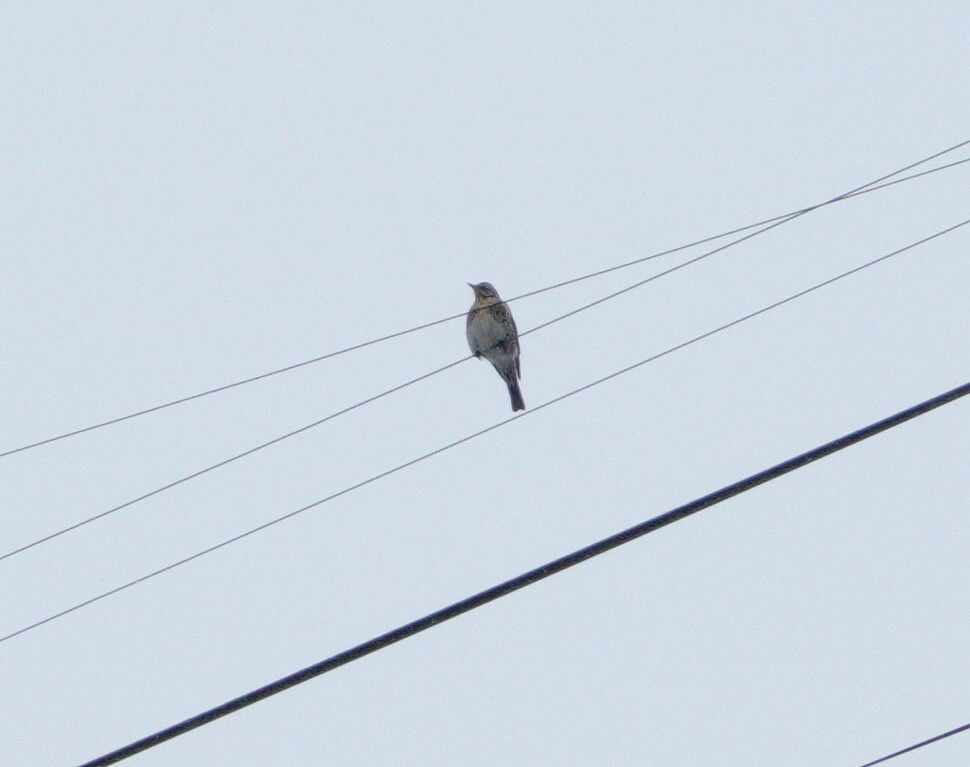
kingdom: Animalia
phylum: Chordata
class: Aves
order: Passeriformes
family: Turdidae
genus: Turdus
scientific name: Turdus pilaris
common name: Fieldfare
